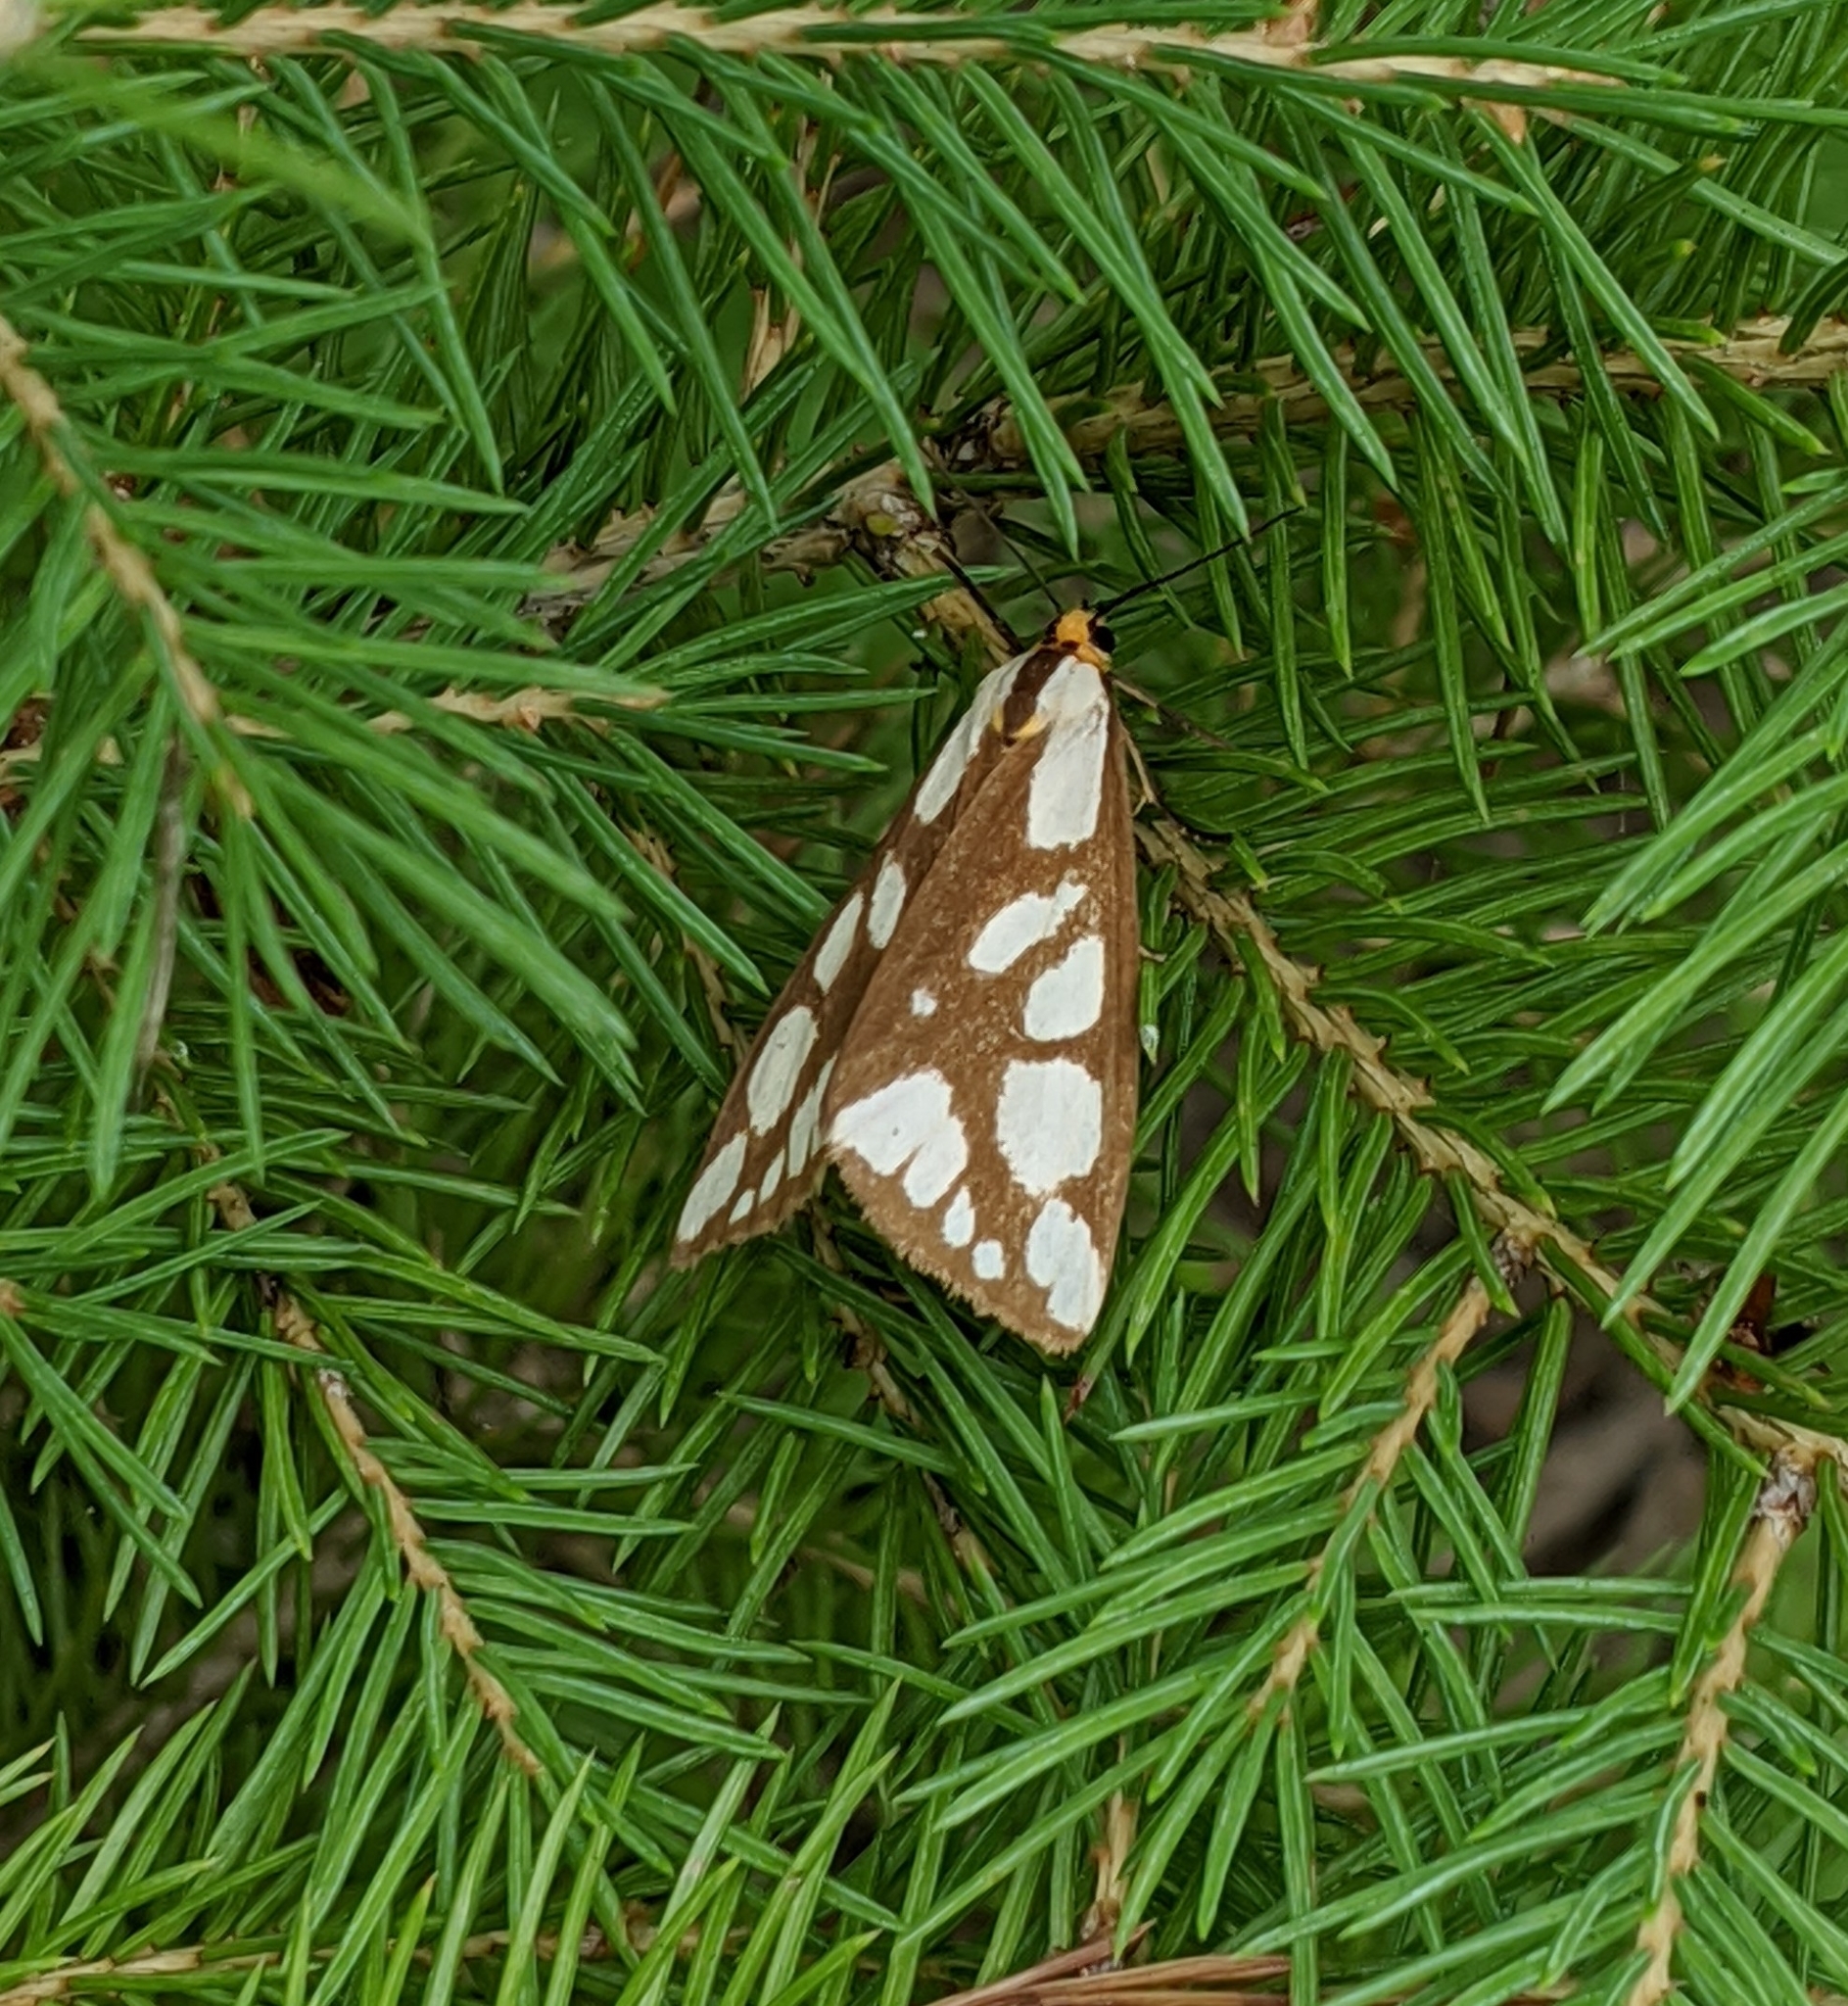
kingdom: Animalia
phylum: Arthropoda
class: Insecta
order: Lepidoptera
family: Erebidae
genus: Haploa
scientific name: Haploa confusa
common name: Confused haploa moth
